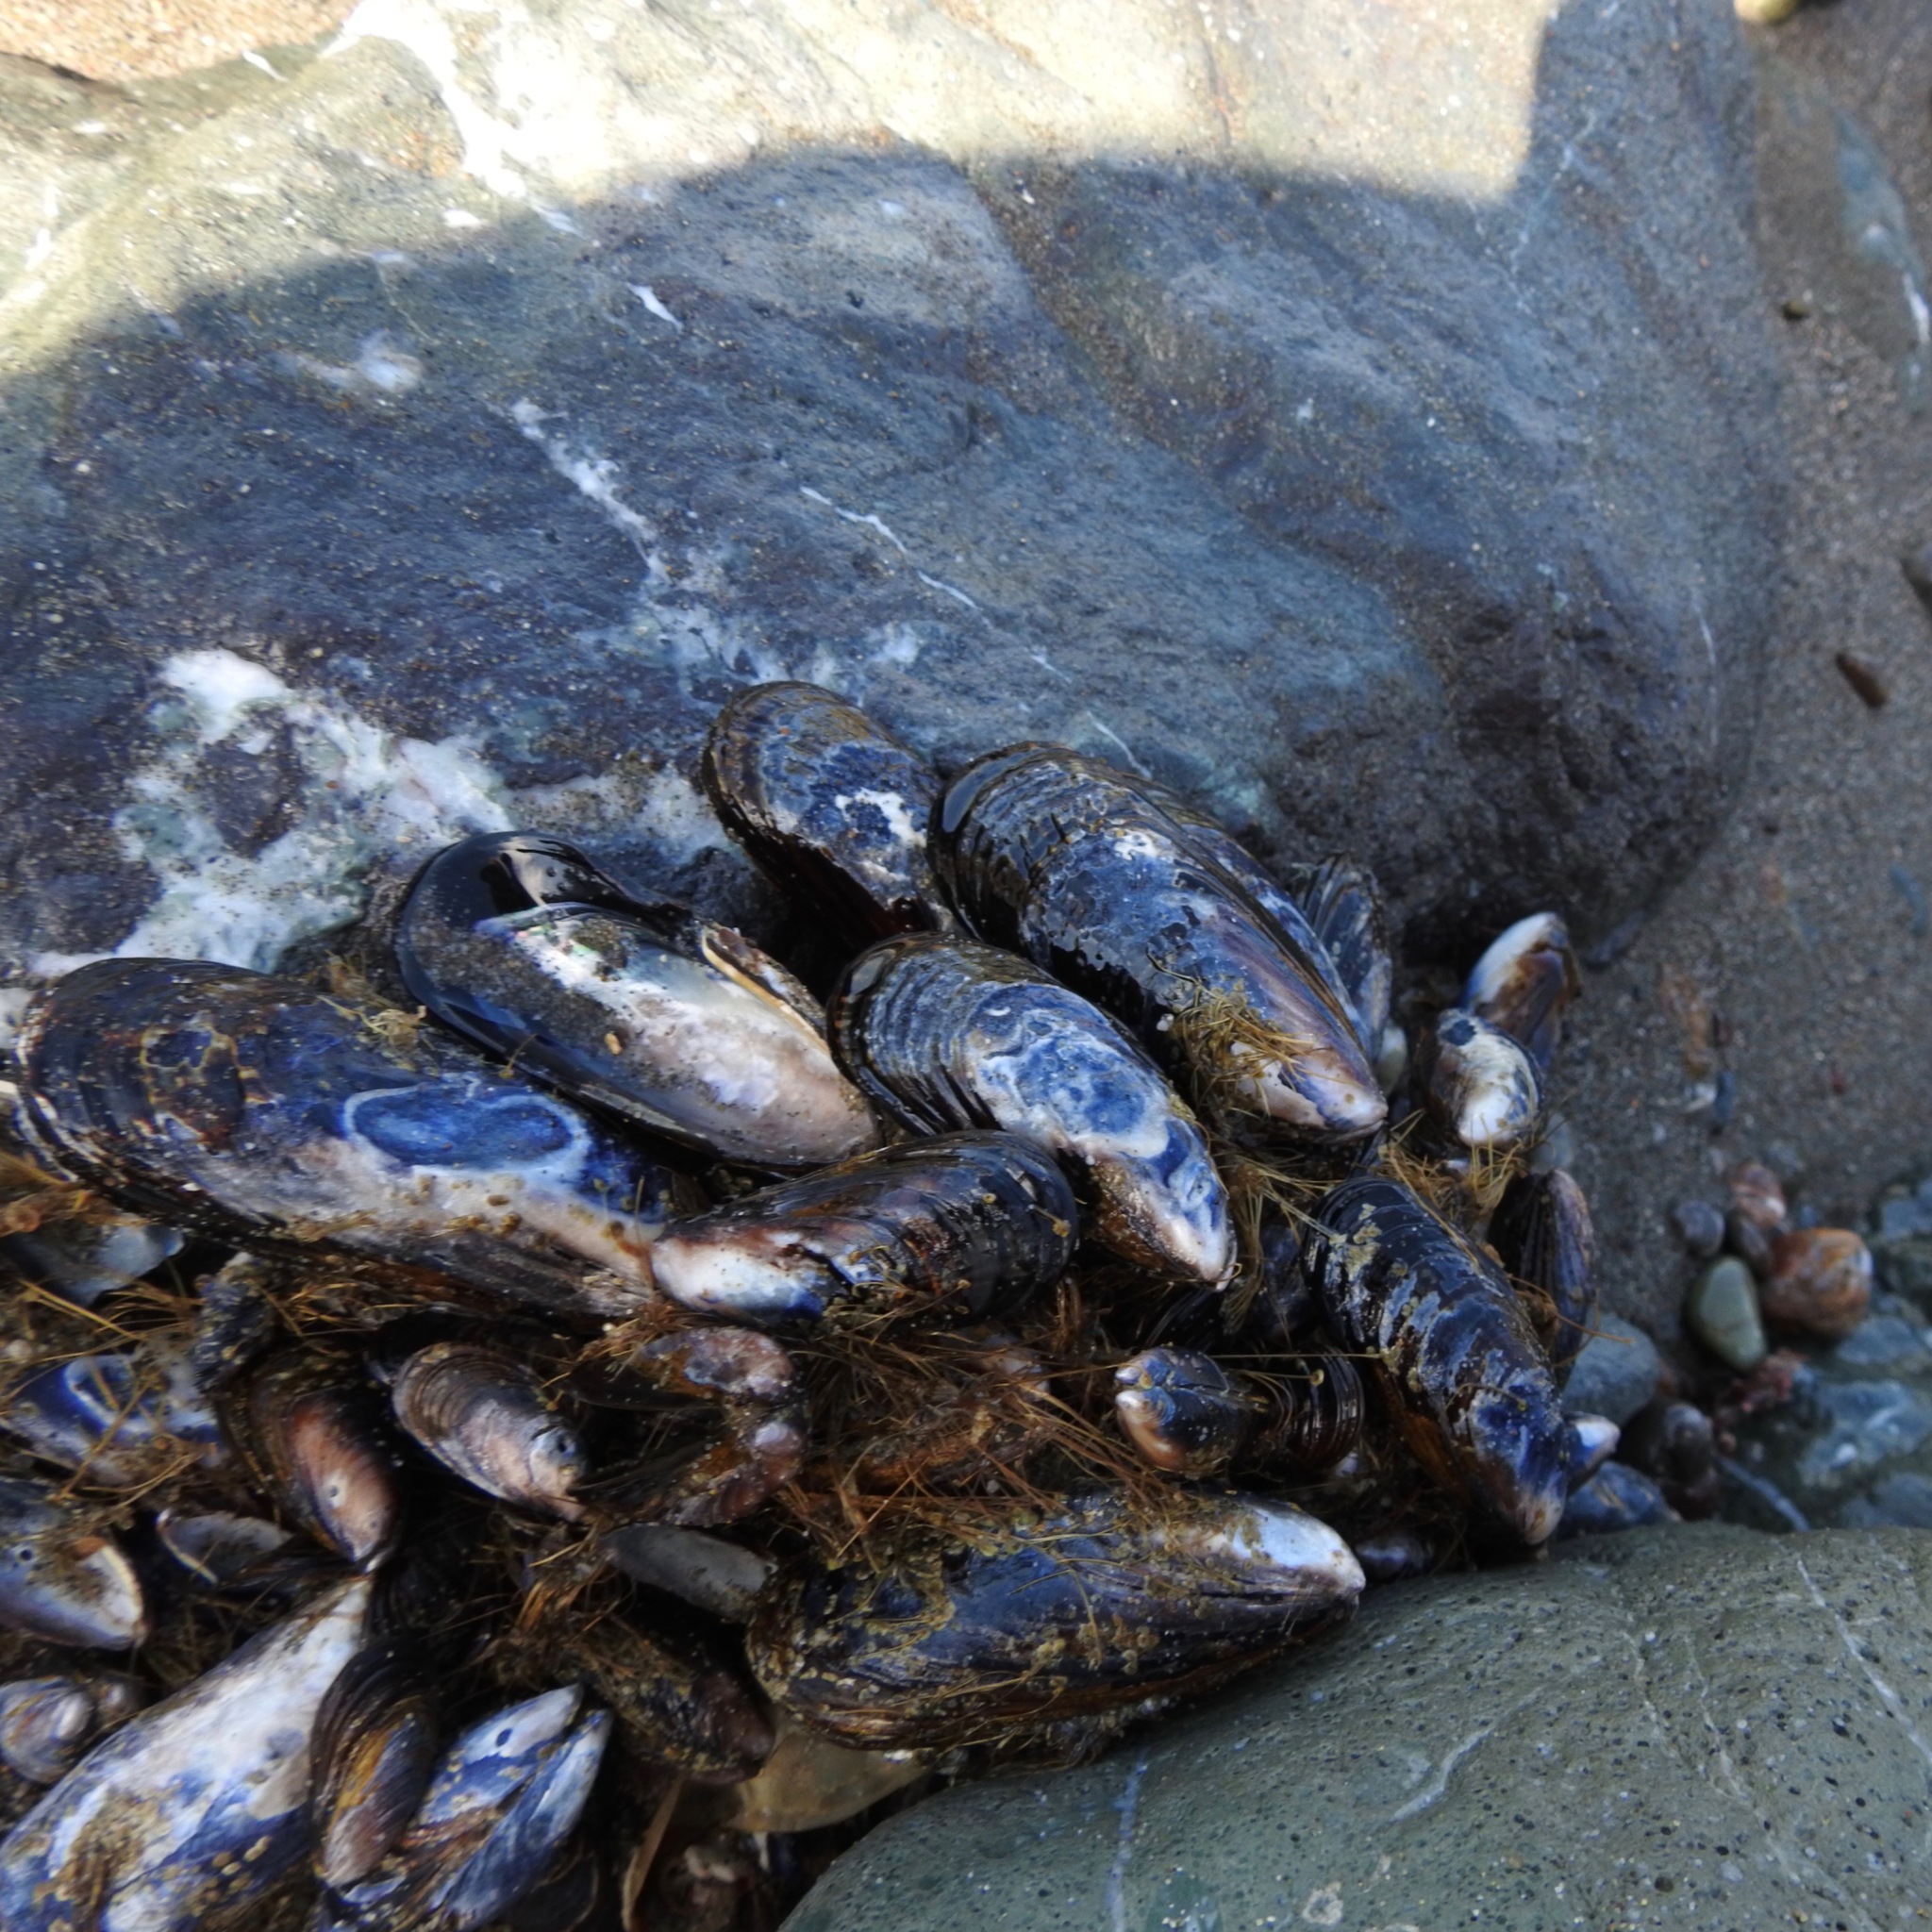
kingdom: Animalia
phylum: Mollusca
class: Bivalvia
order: Mytilida
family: Mytilidae
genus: Mytilus
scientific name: Mytilus californianus
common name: California mussel
